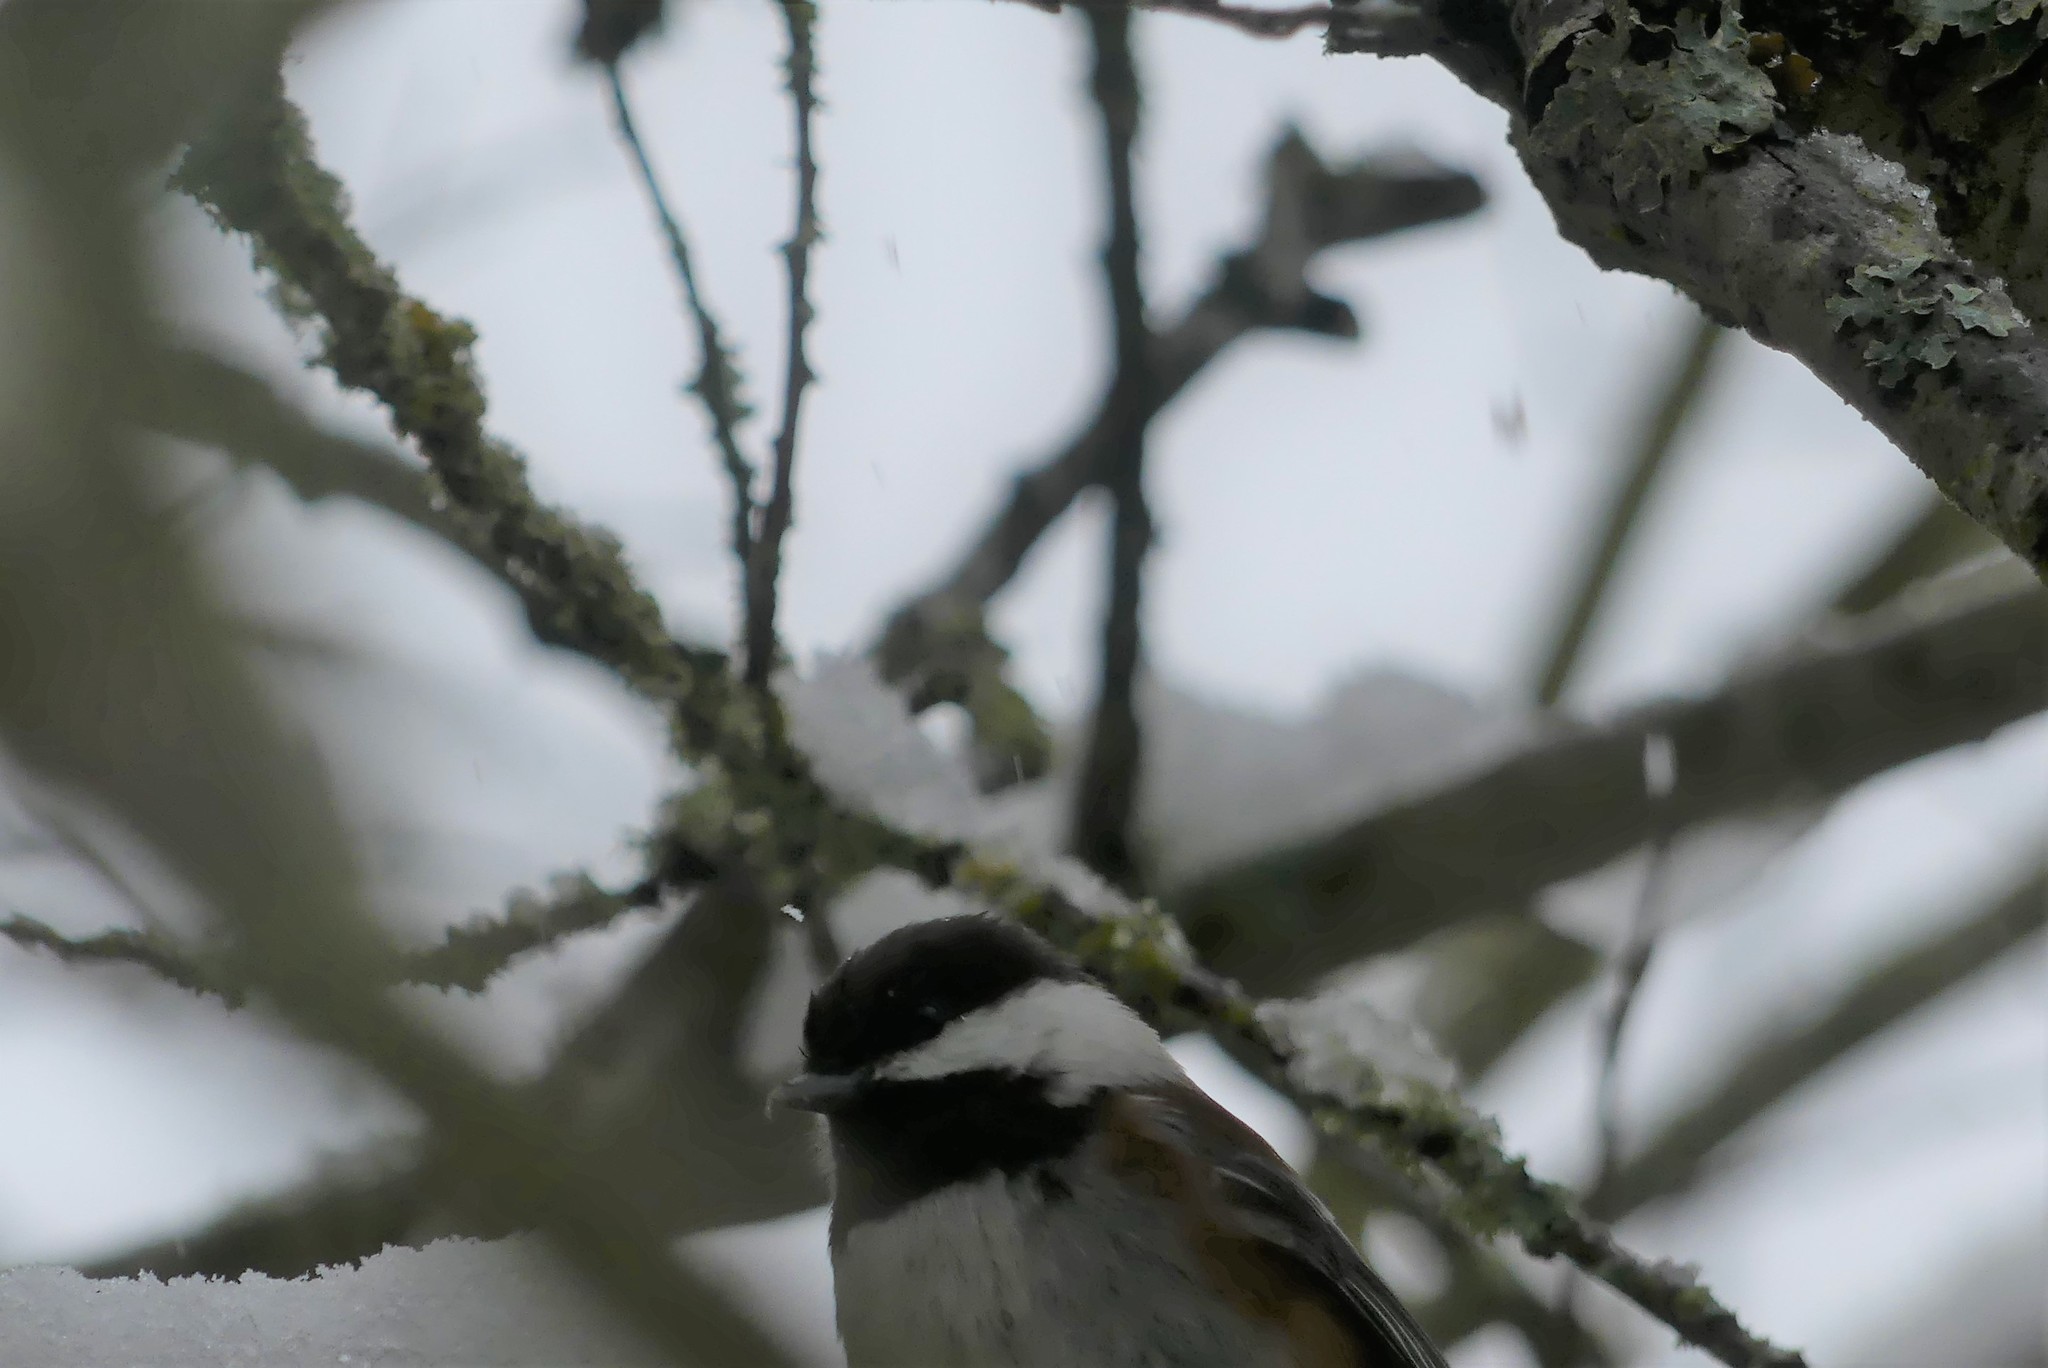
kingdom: Animalia
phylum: Chordata
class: Aves
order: Passeriformes
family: Paridae
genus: Poecile
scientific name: Poecile rufescens
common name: Chestnut-backed chickadee
